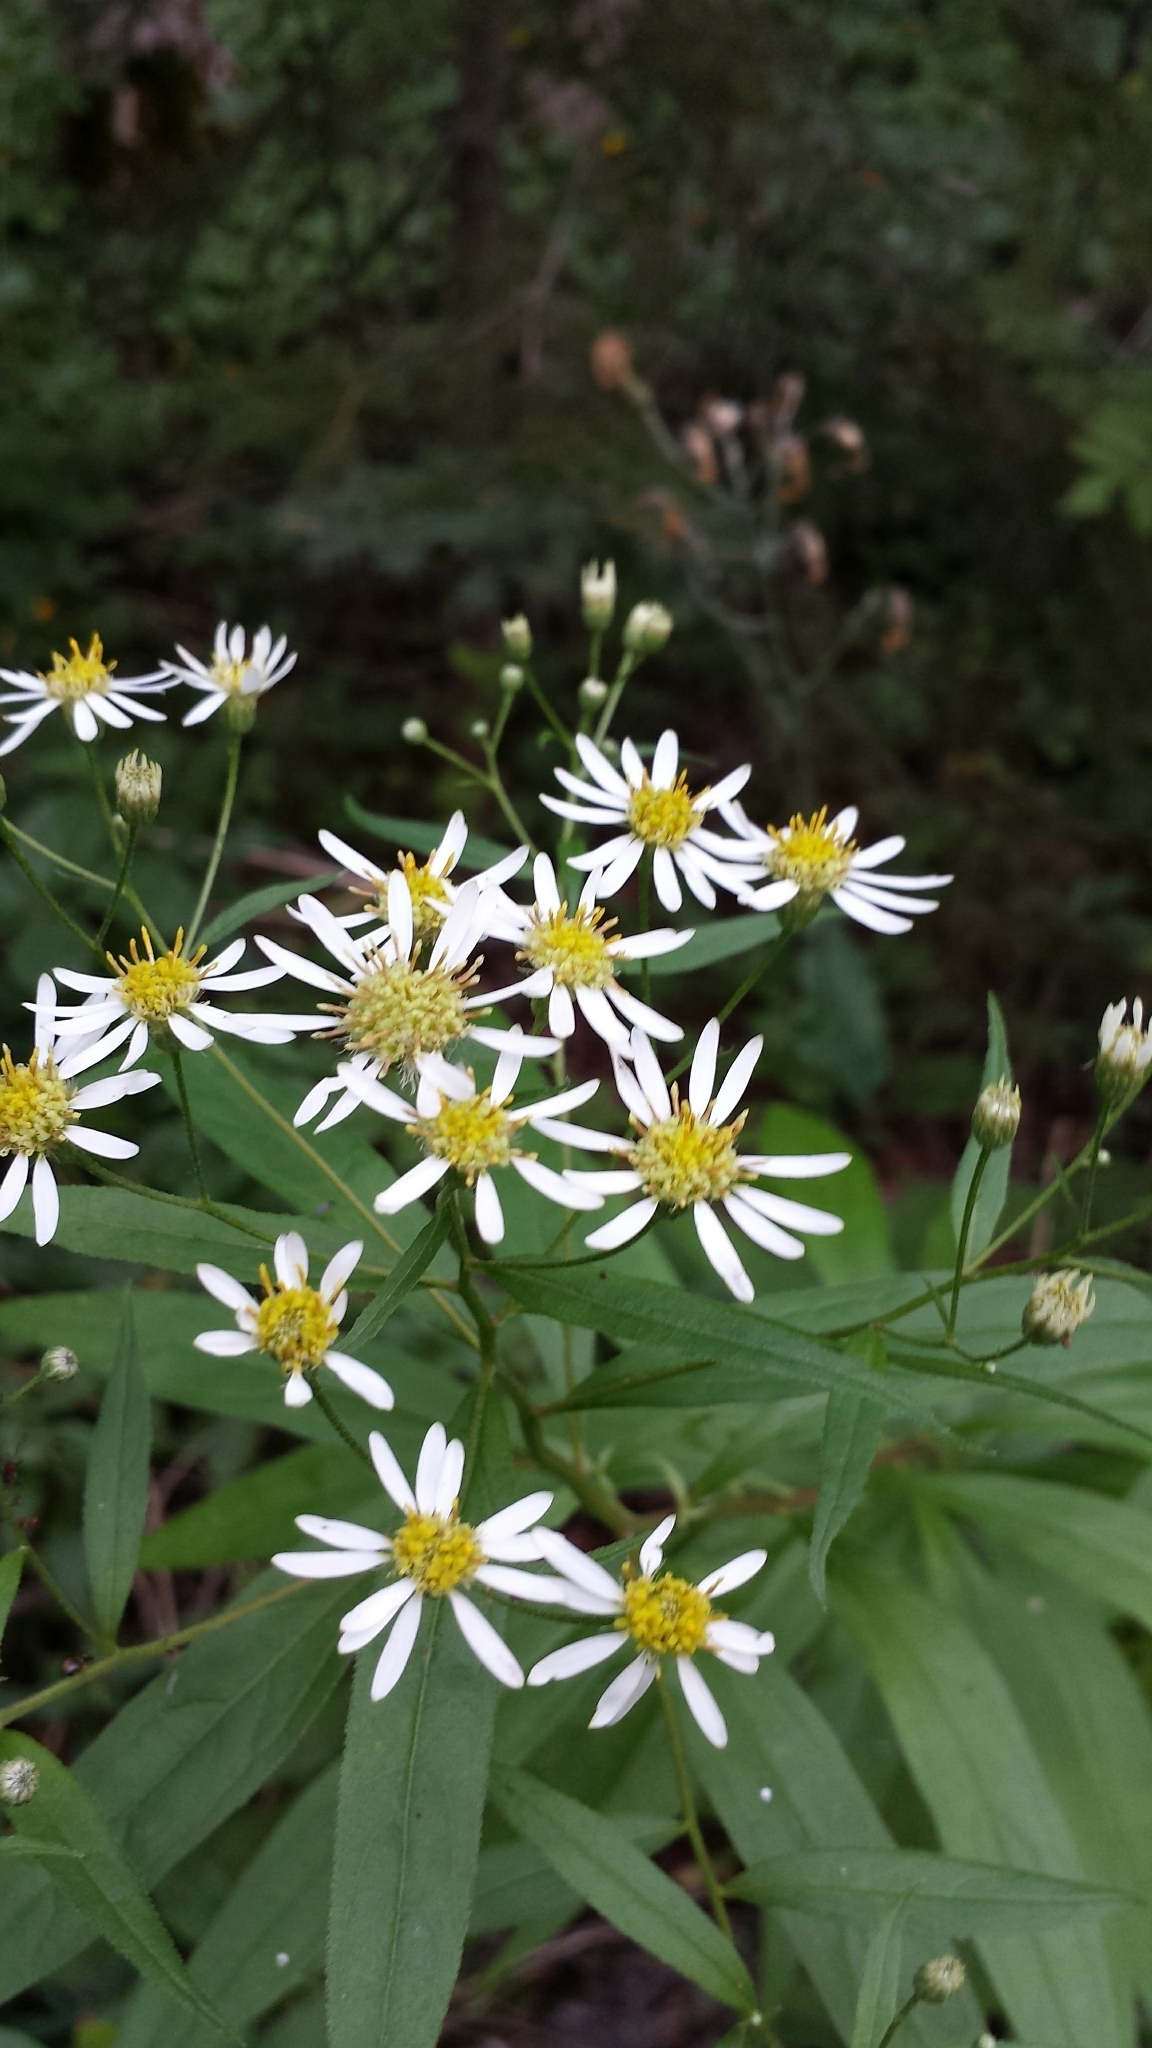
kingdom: Plantae
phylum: Tracheophyta
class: Magnoliopsida
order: Asterales
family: Asteraceae
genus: Doellingeria
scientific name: Doellingeria umbellata
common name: Flat-top white aster
